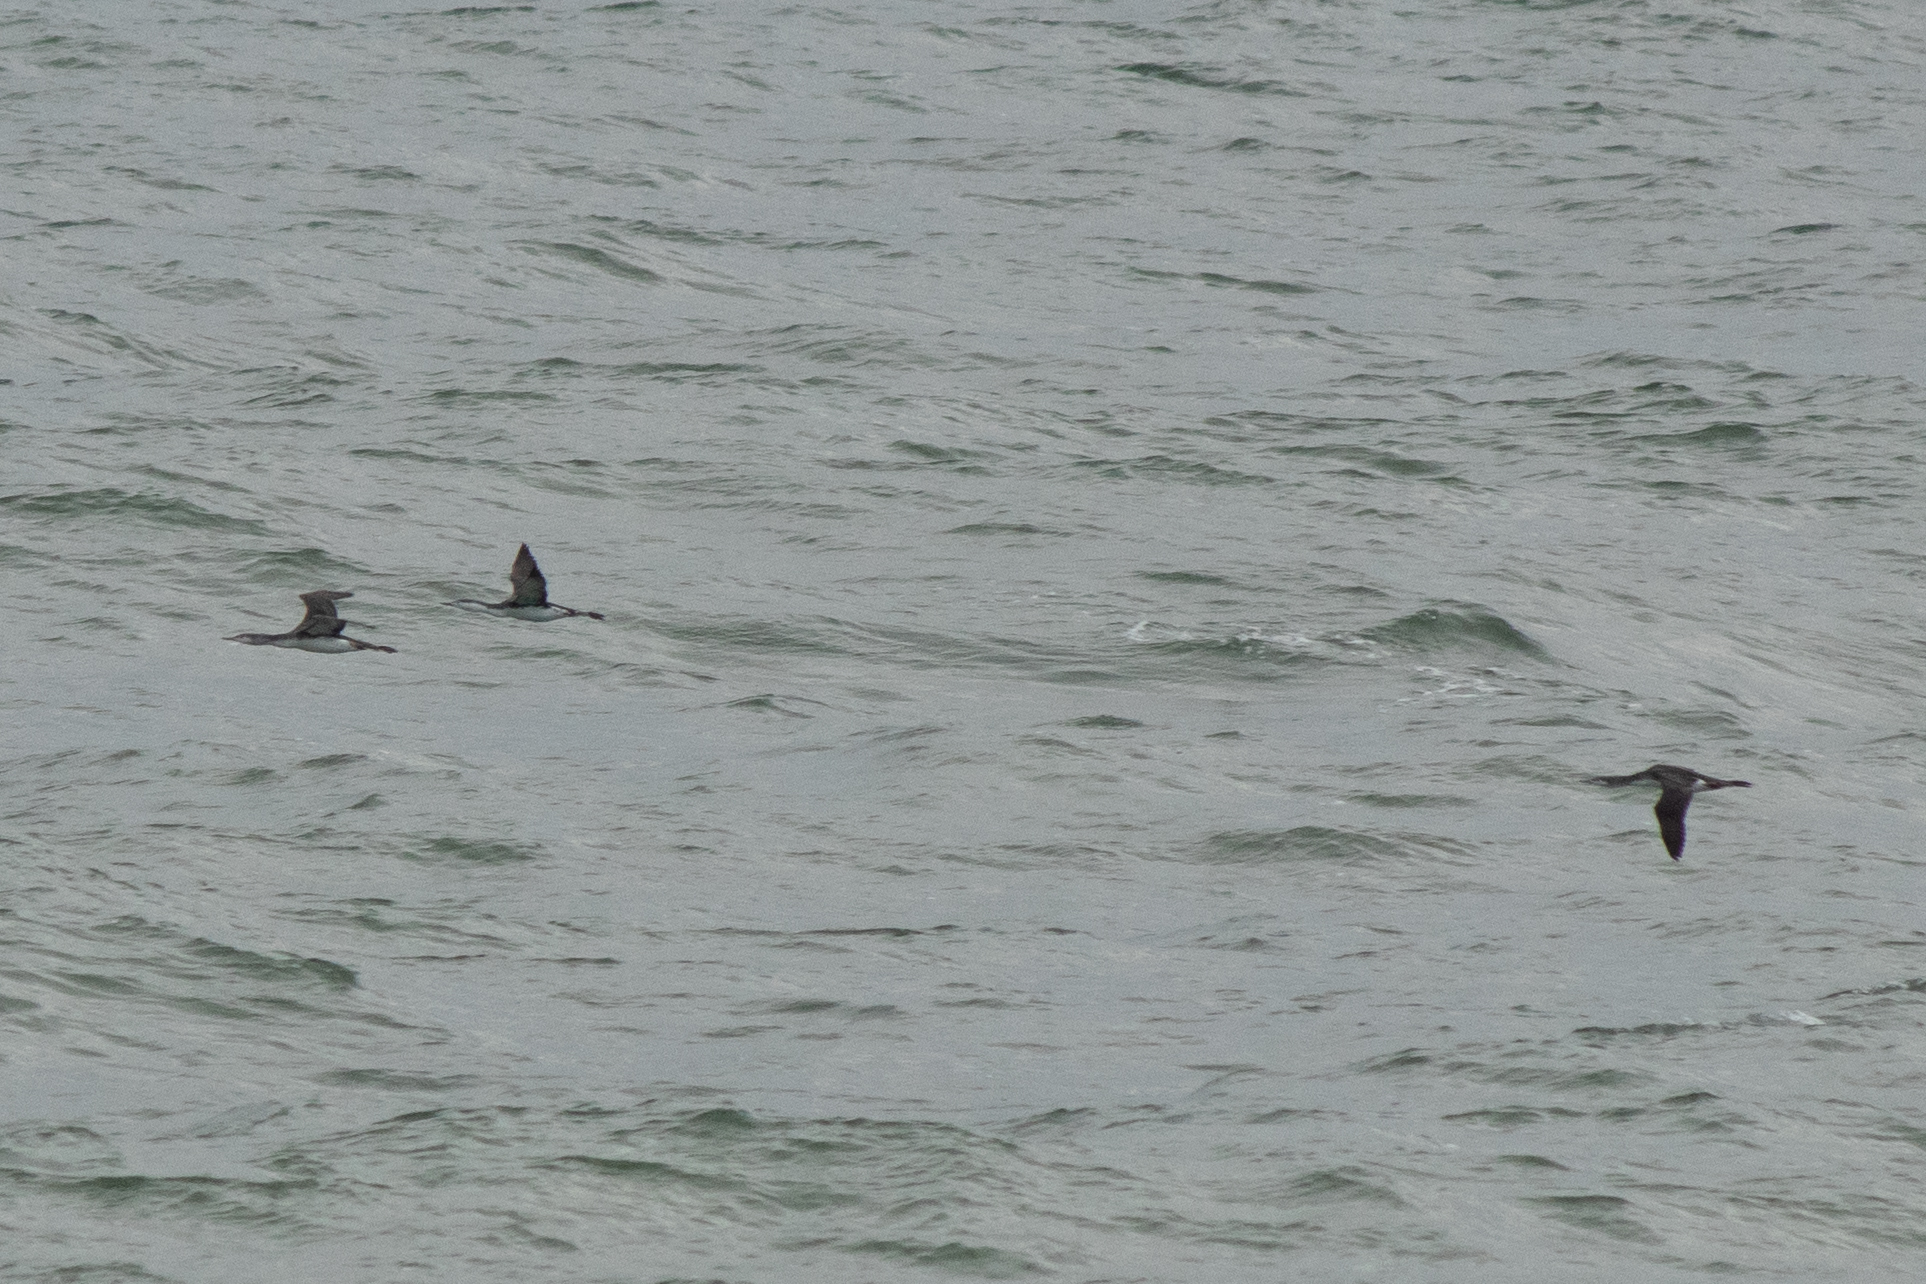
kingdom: Animalia
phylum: Chordata
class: Aves
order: Gaviiformes
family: Gaviidae
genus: Gavia
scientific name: Gavia stellata
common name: Red-throated loon
